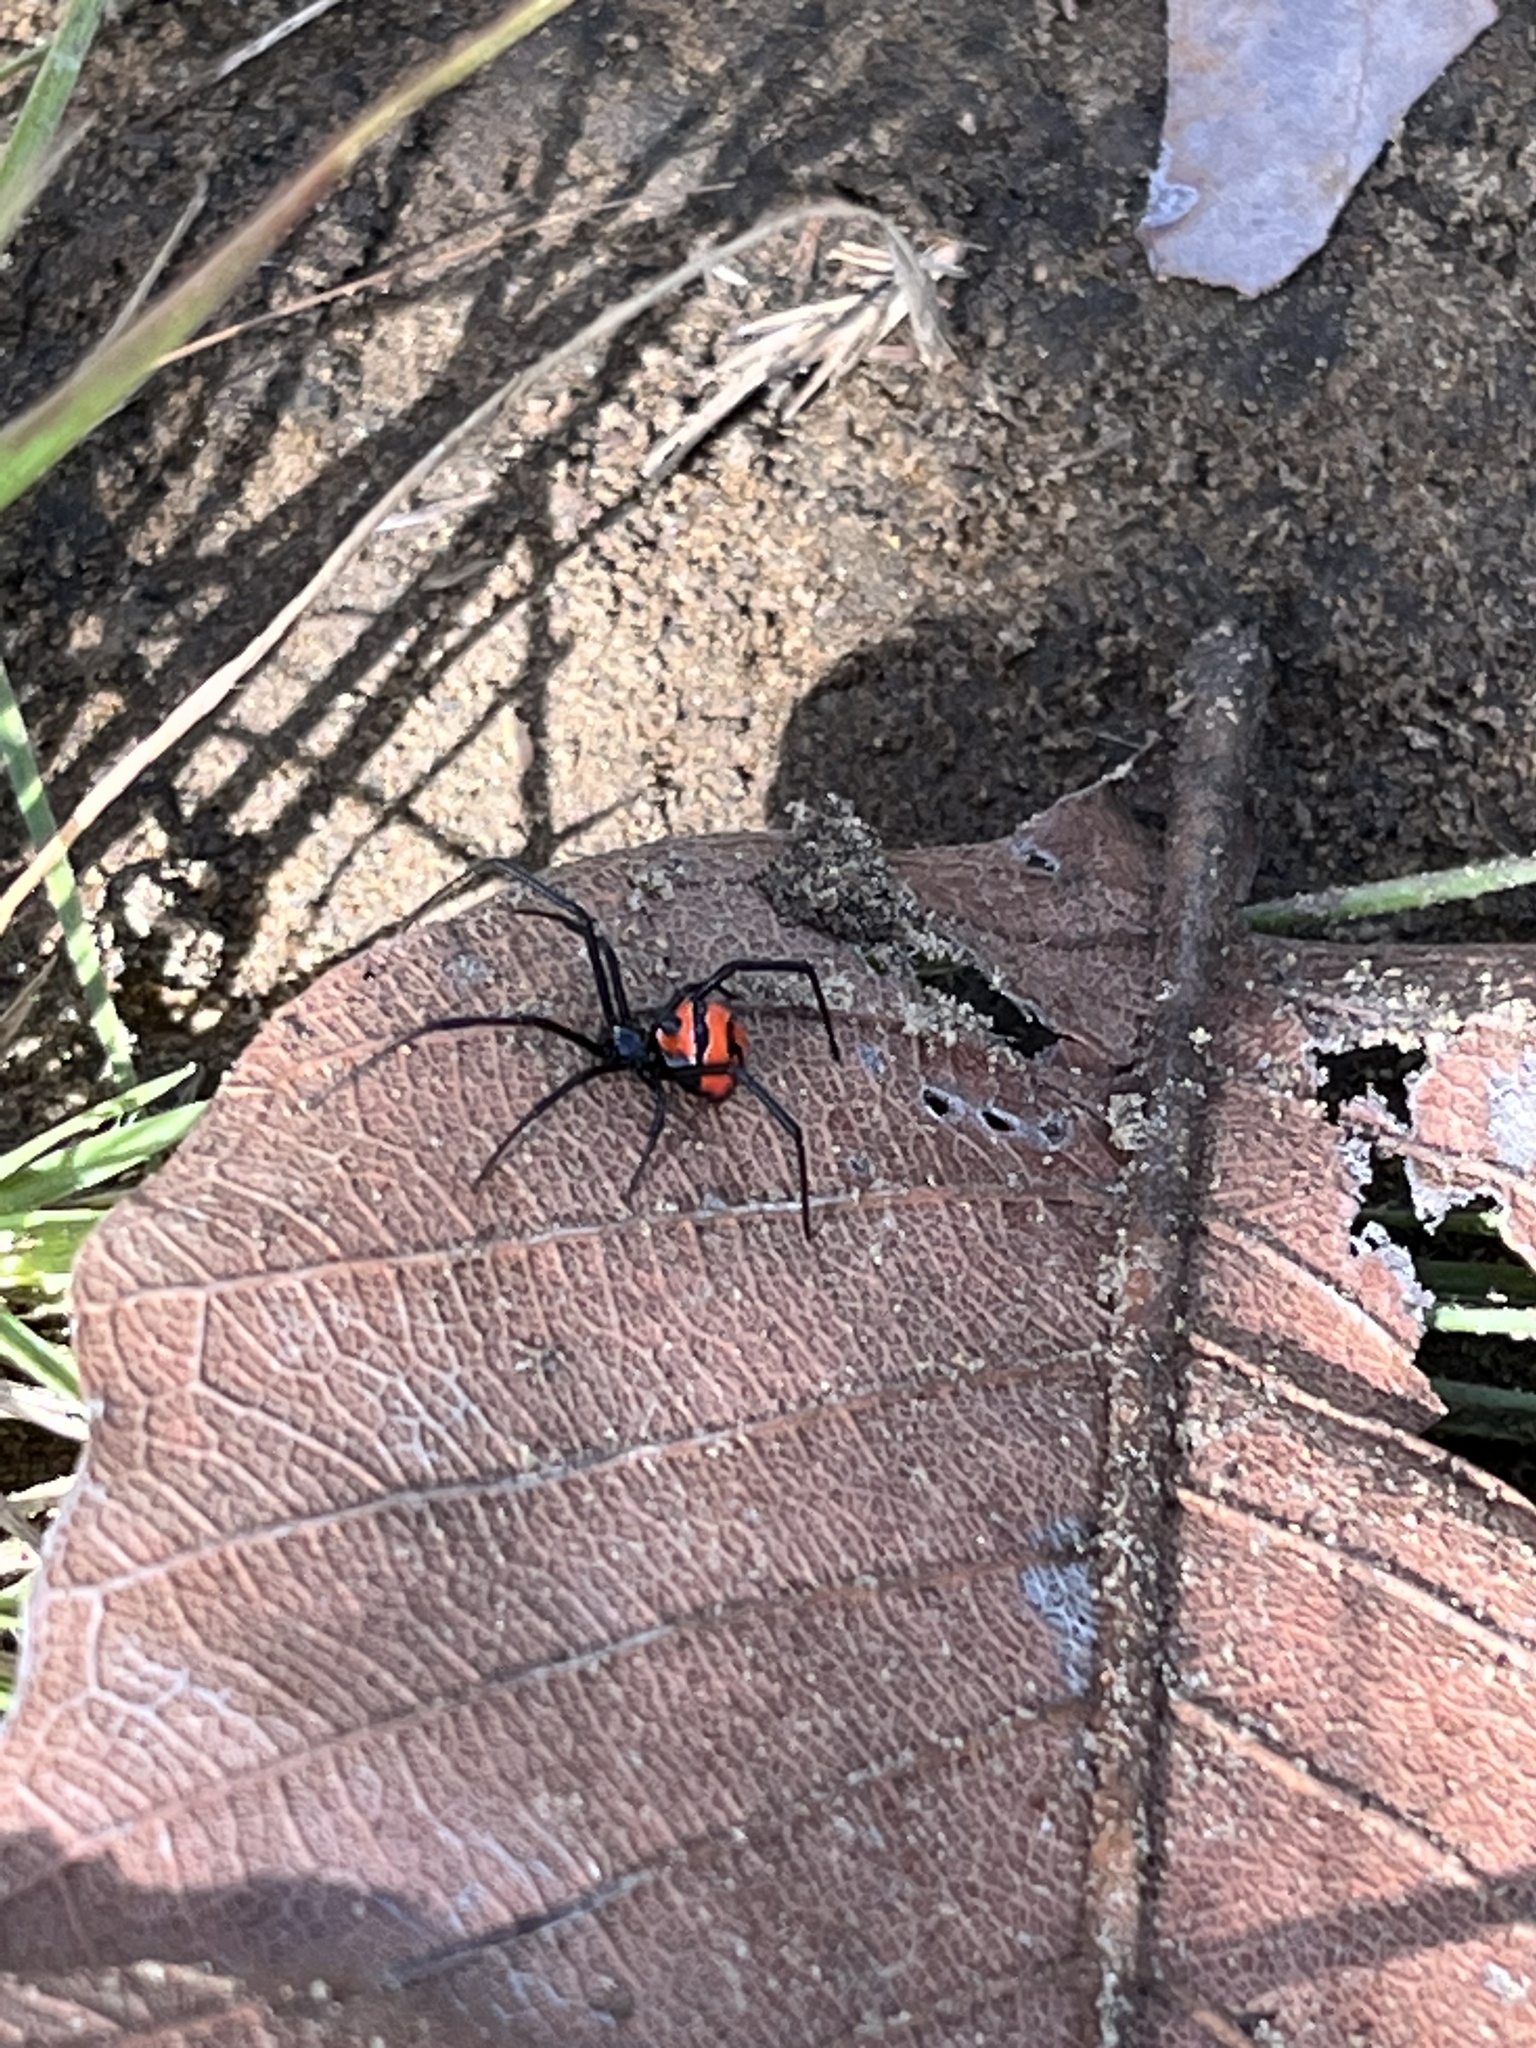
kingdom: Animalia
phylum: Arthropoda
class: Arachnida
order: Araneae
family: Theridiidae
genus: Latrodectus
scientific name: Latrodectus curacaviensis
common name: South american black widow
